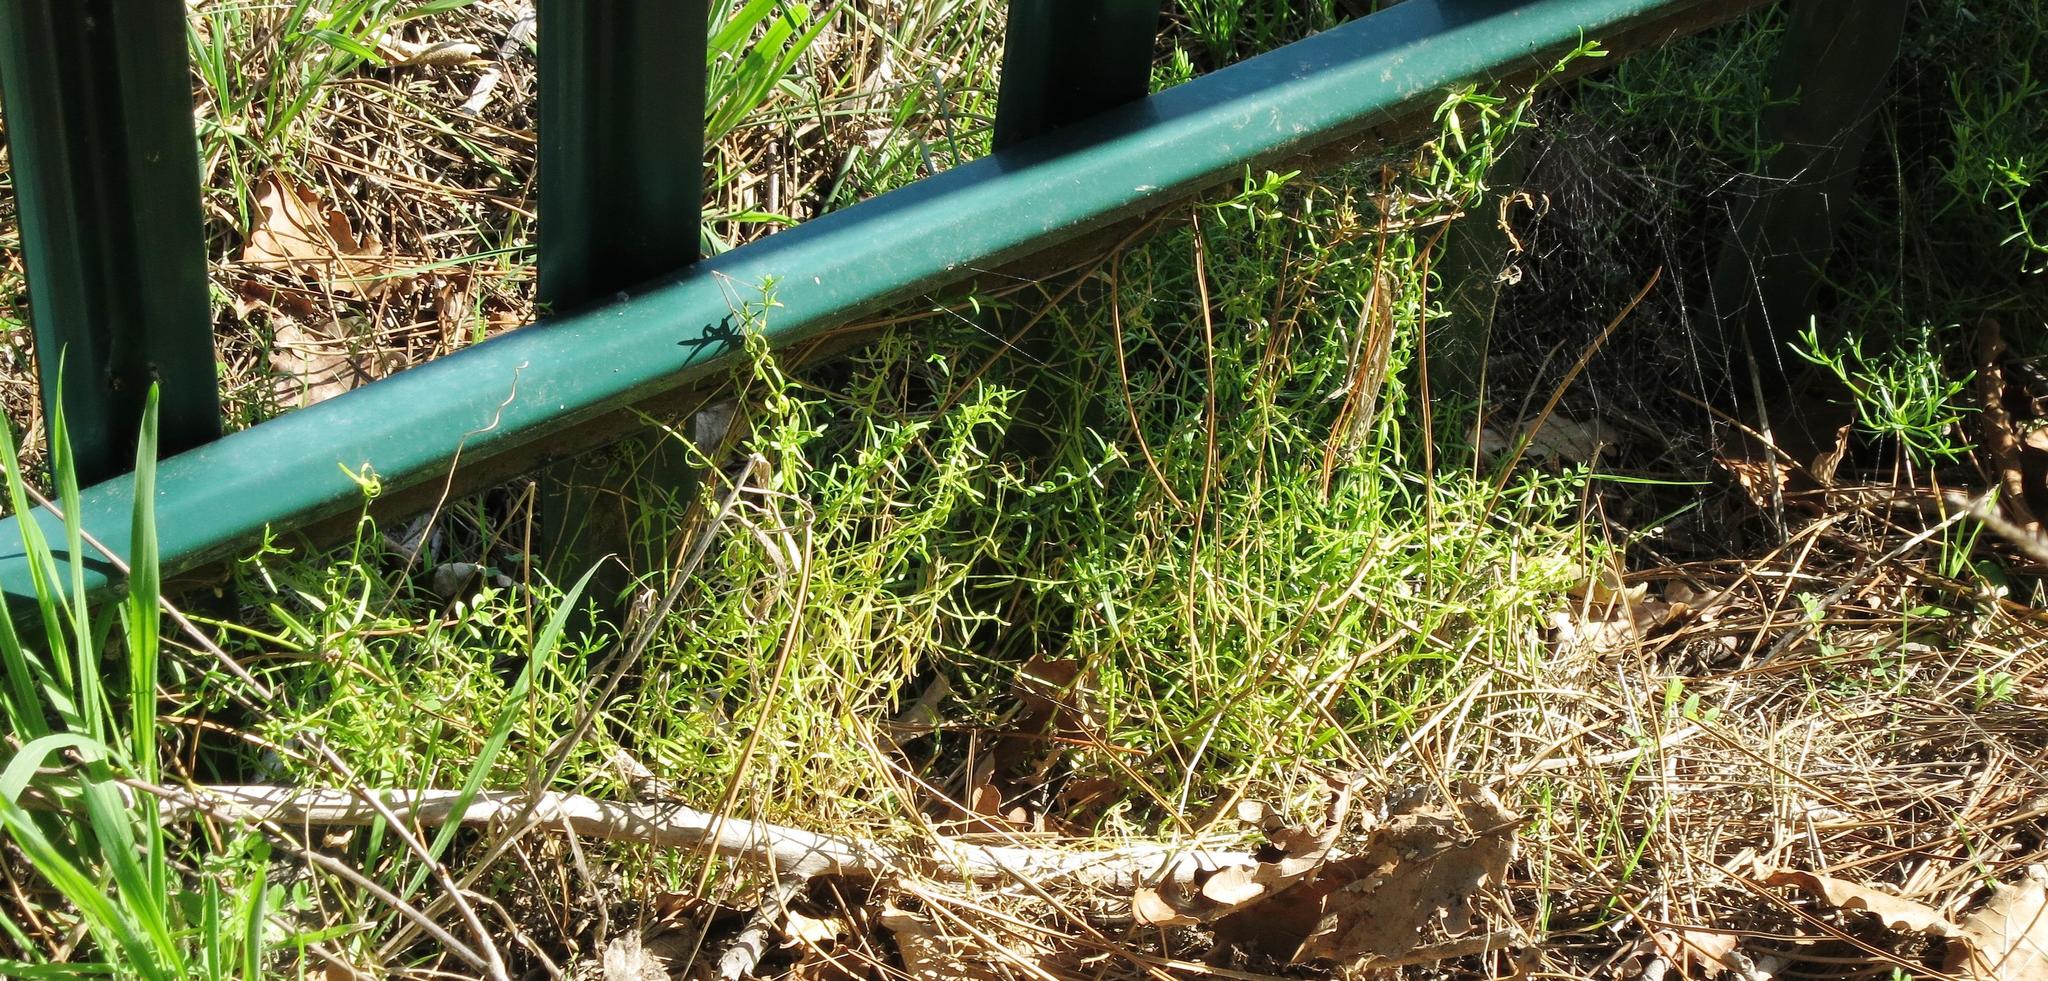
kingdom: Plantae
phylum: Tracheophyta
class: Magnoliopsida
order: Gentianales
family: Gentianaceae
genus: Chironia
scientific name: Chironia baccifera
